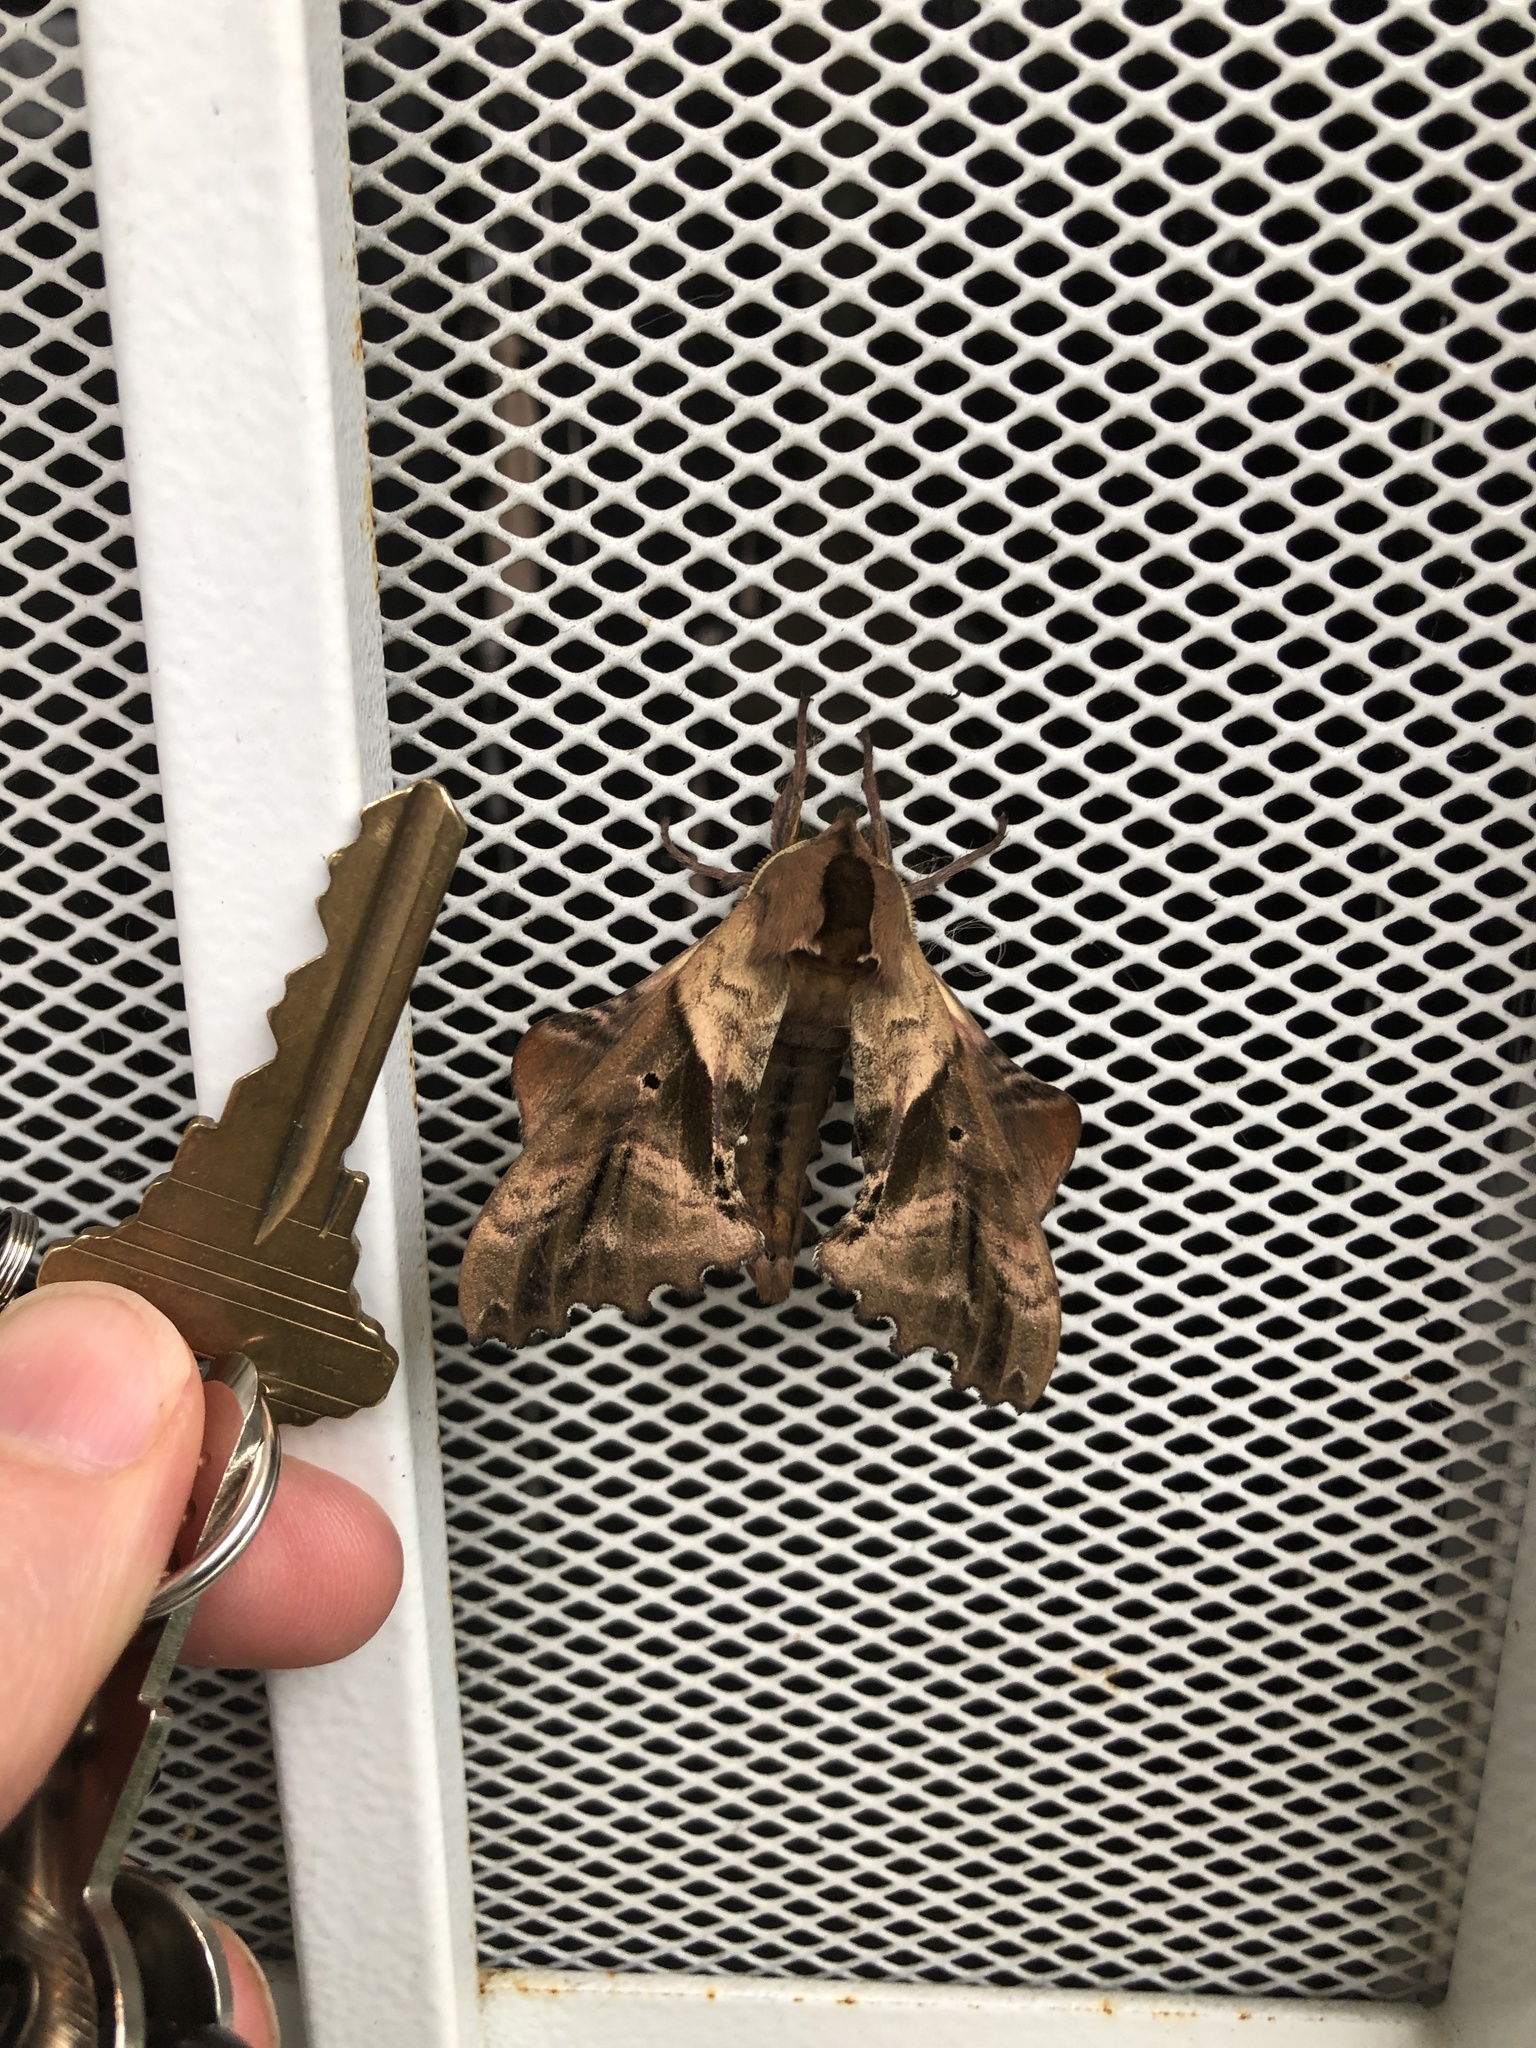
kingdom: Animalia
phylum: Arthropoda
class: Insecta
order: Lepidoptera
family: Sphingidae
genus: Paonias
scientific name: Paonias excaecata
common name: Blind-eyed sphinx
